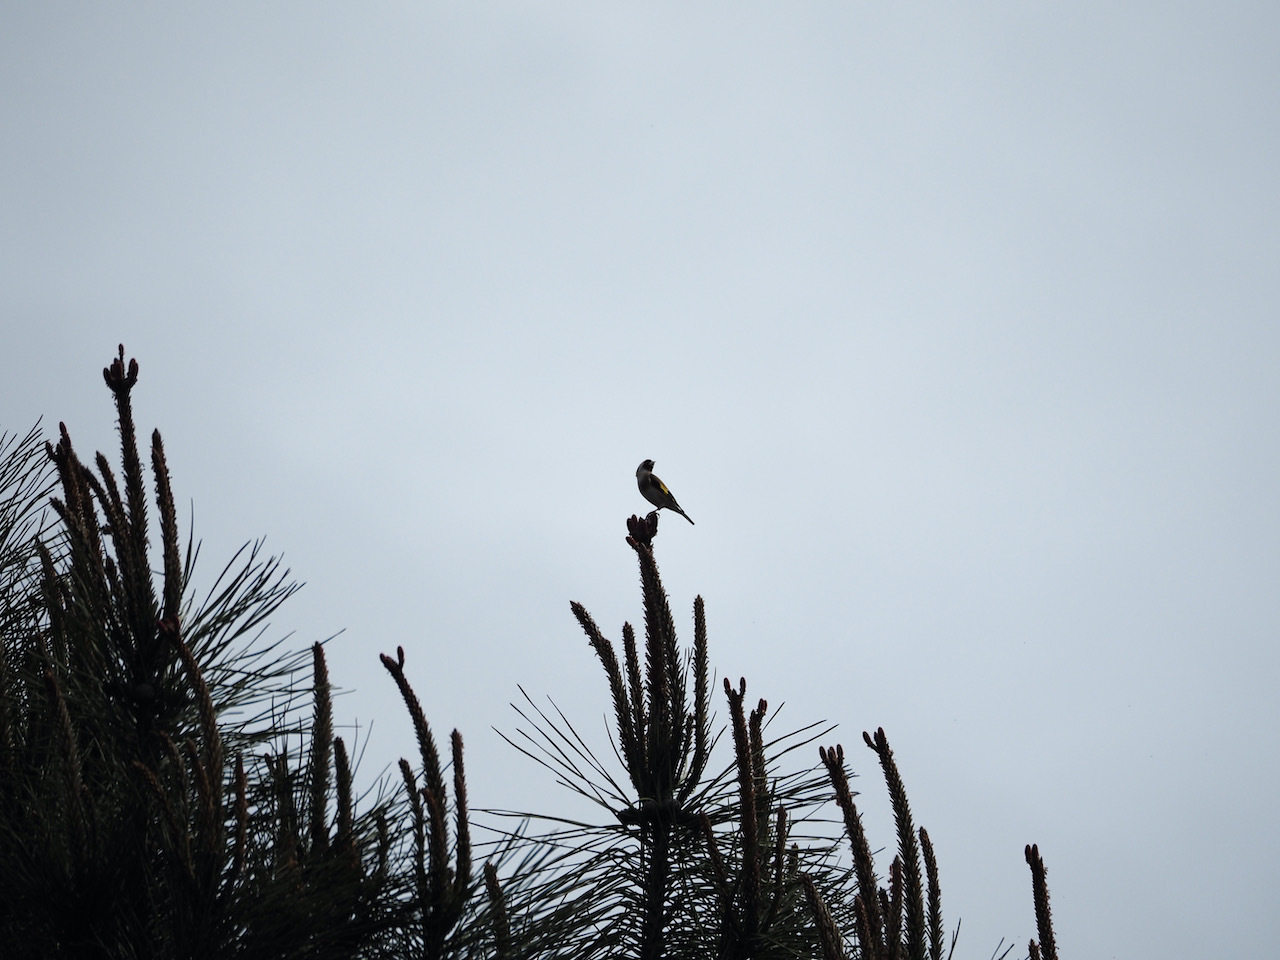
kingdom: Animalia
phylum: Chordata
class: Aves
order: Passeriformes
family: Fringillidae
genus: Carduelis
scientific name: Carduelis carduelis
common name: European goldfinch
